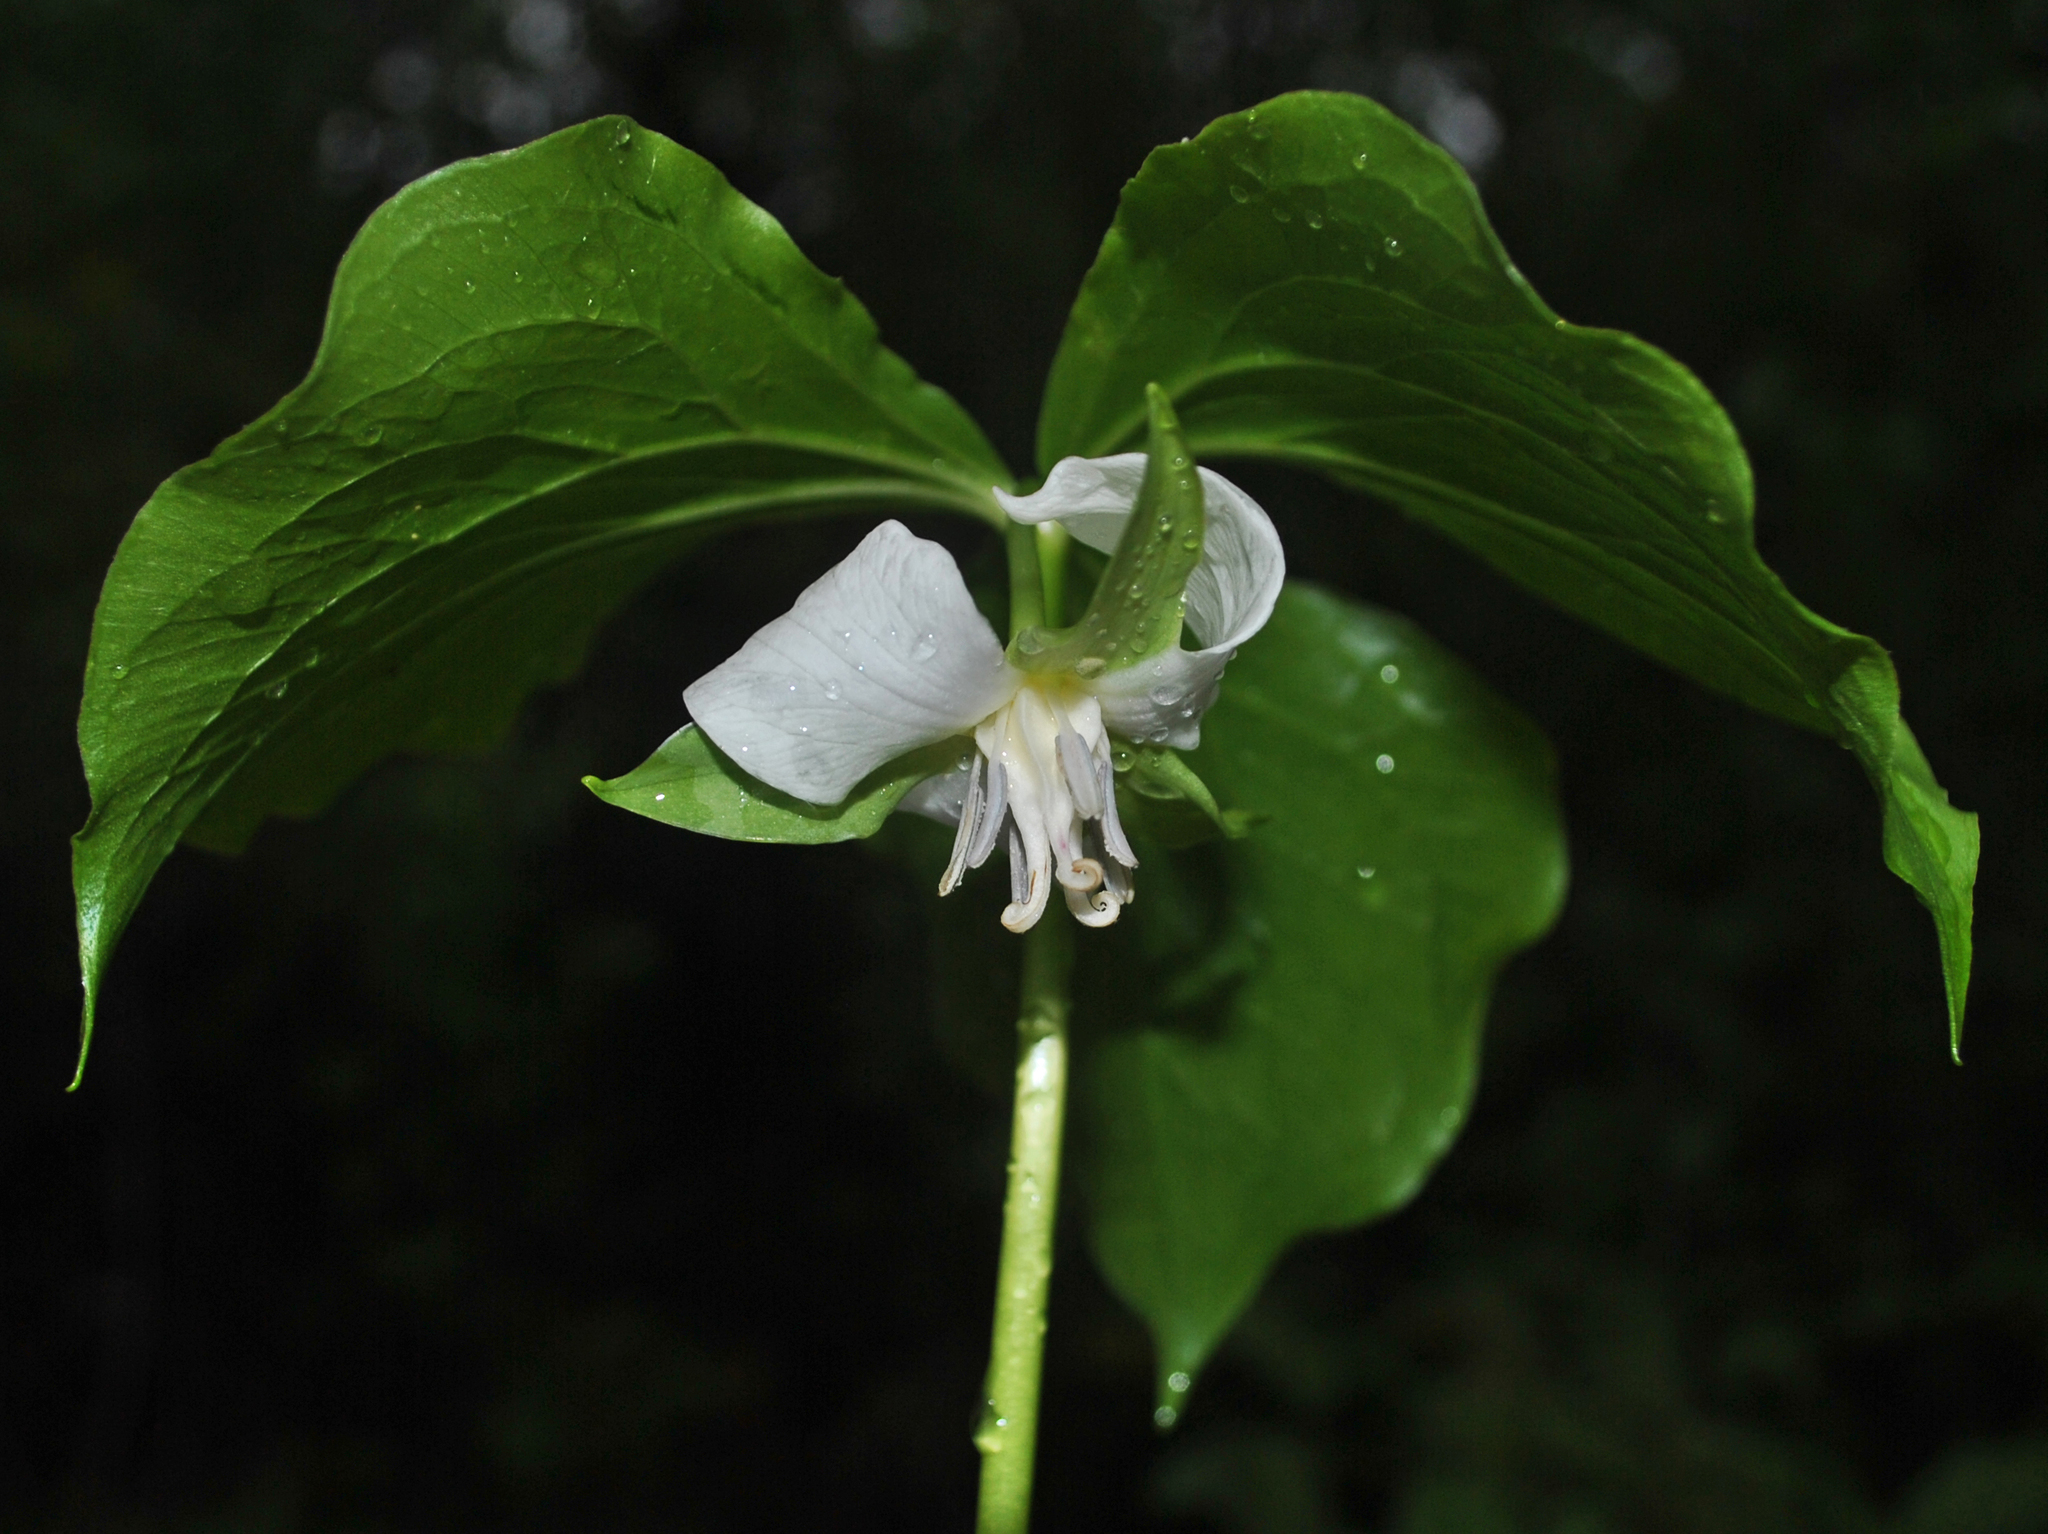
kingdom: Plantae
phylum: Tracheophyta
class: Liliopsida
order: Liliales
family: Melanthiaceae
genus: Trillium
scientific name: Trillium cernuum
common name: Nodding trillium
